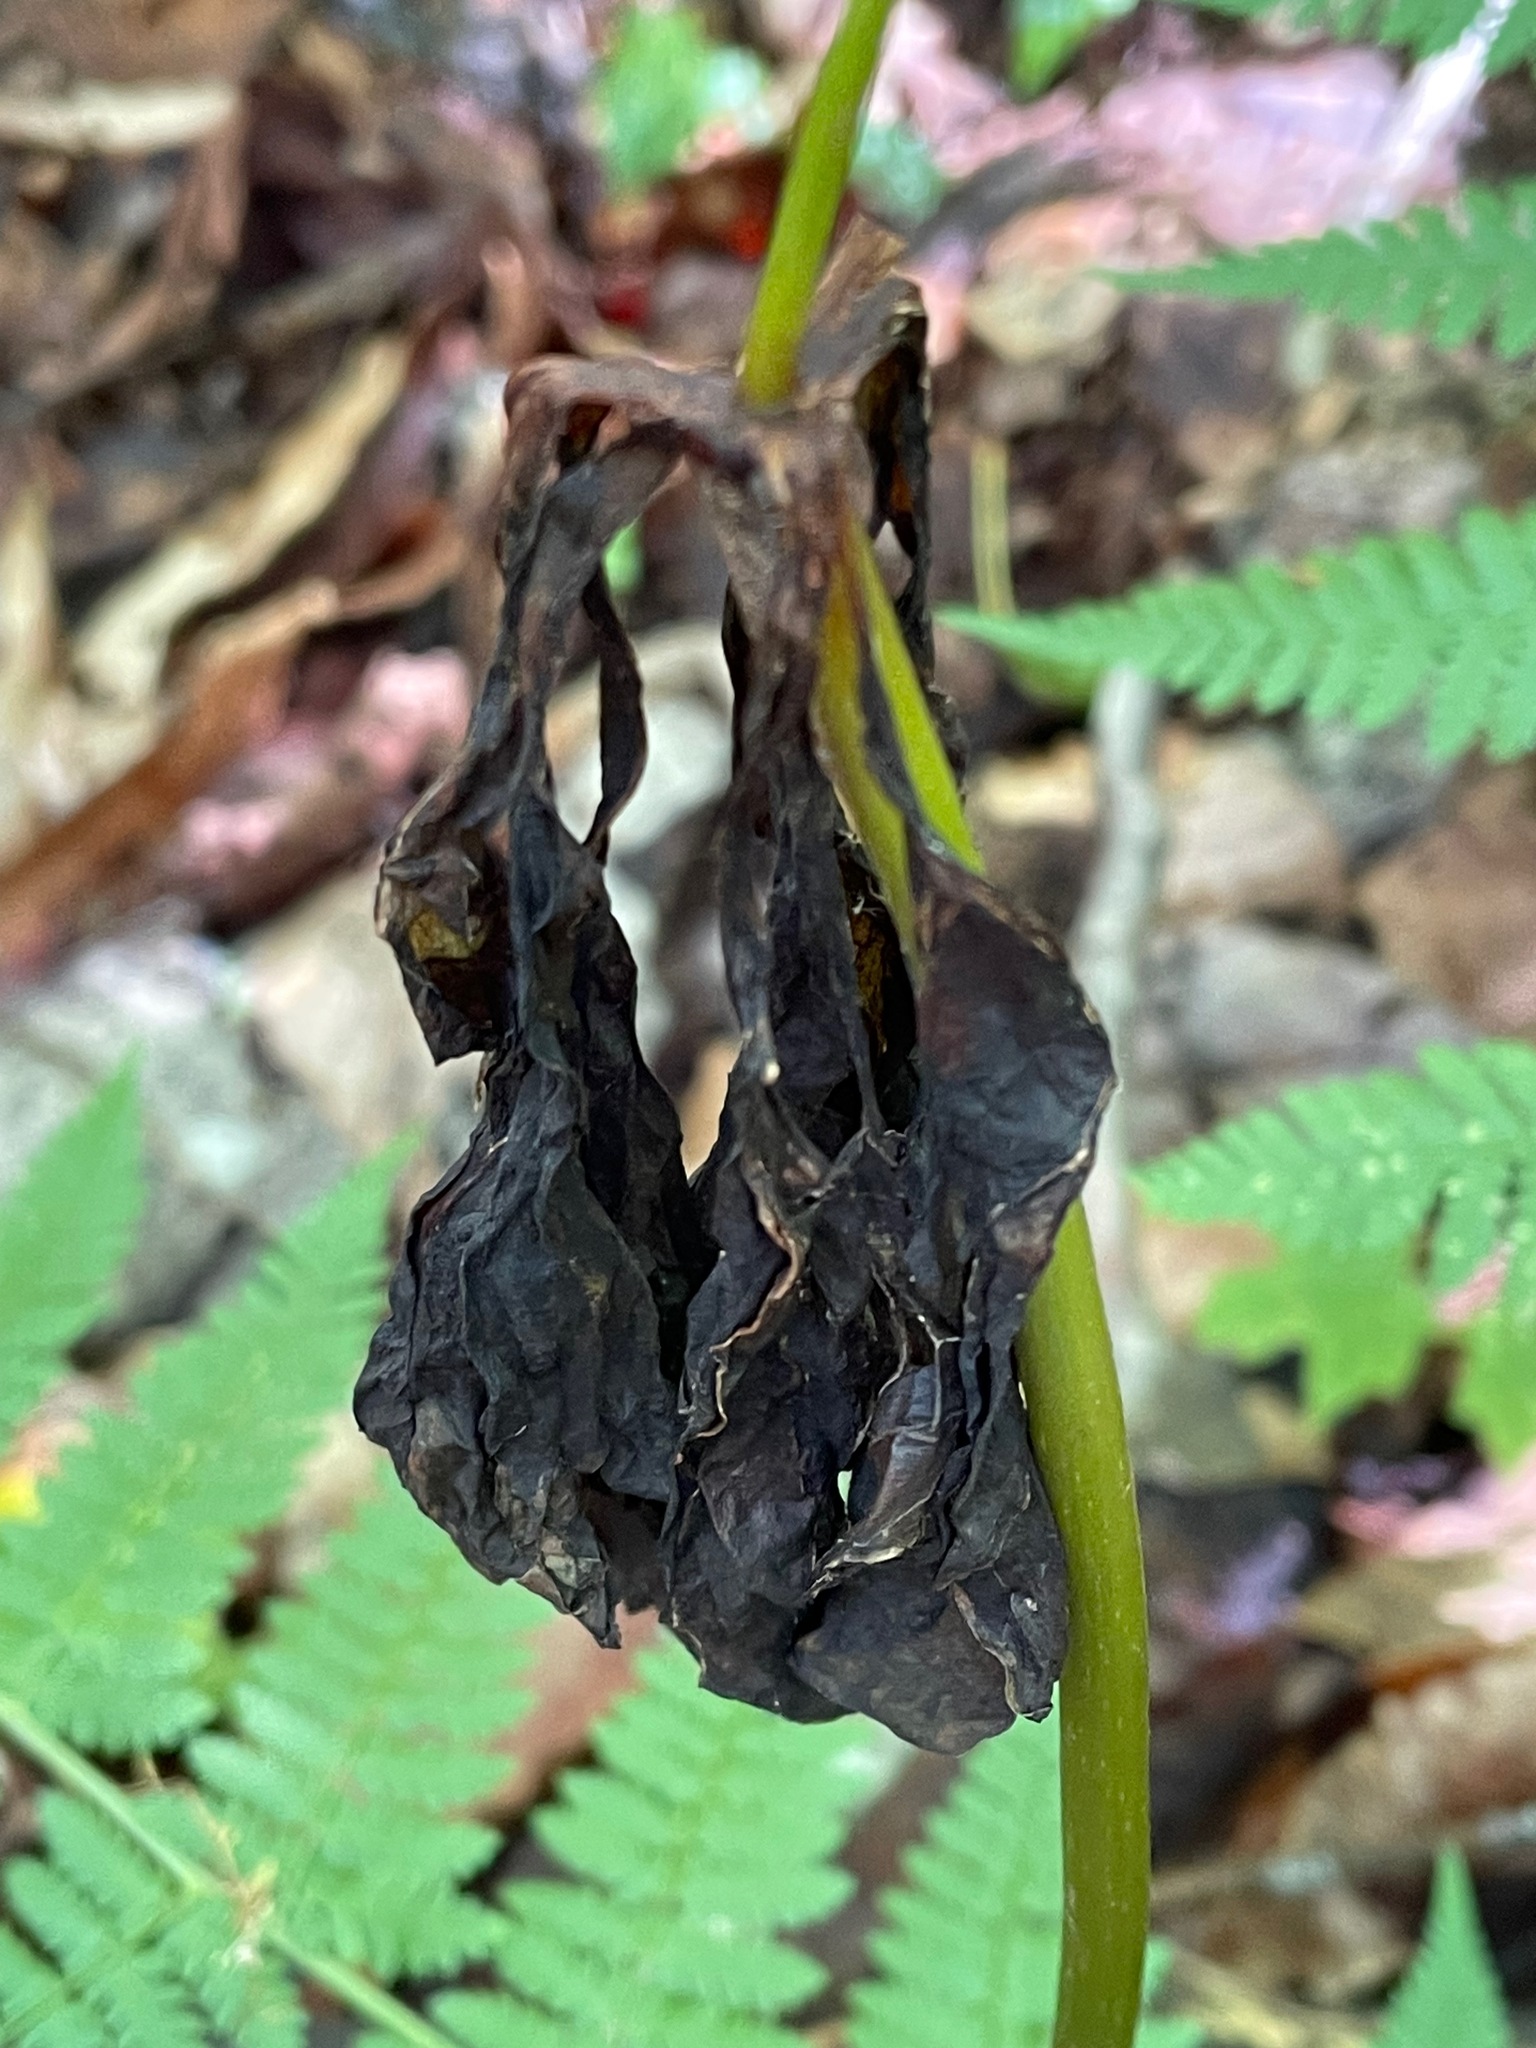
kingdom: Plantae
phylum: Tracheophyta
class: Liliopsida
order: Liliales
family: Melanthiaceae
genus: Trillium
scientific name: Trillium erectum
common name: Purple trillium
